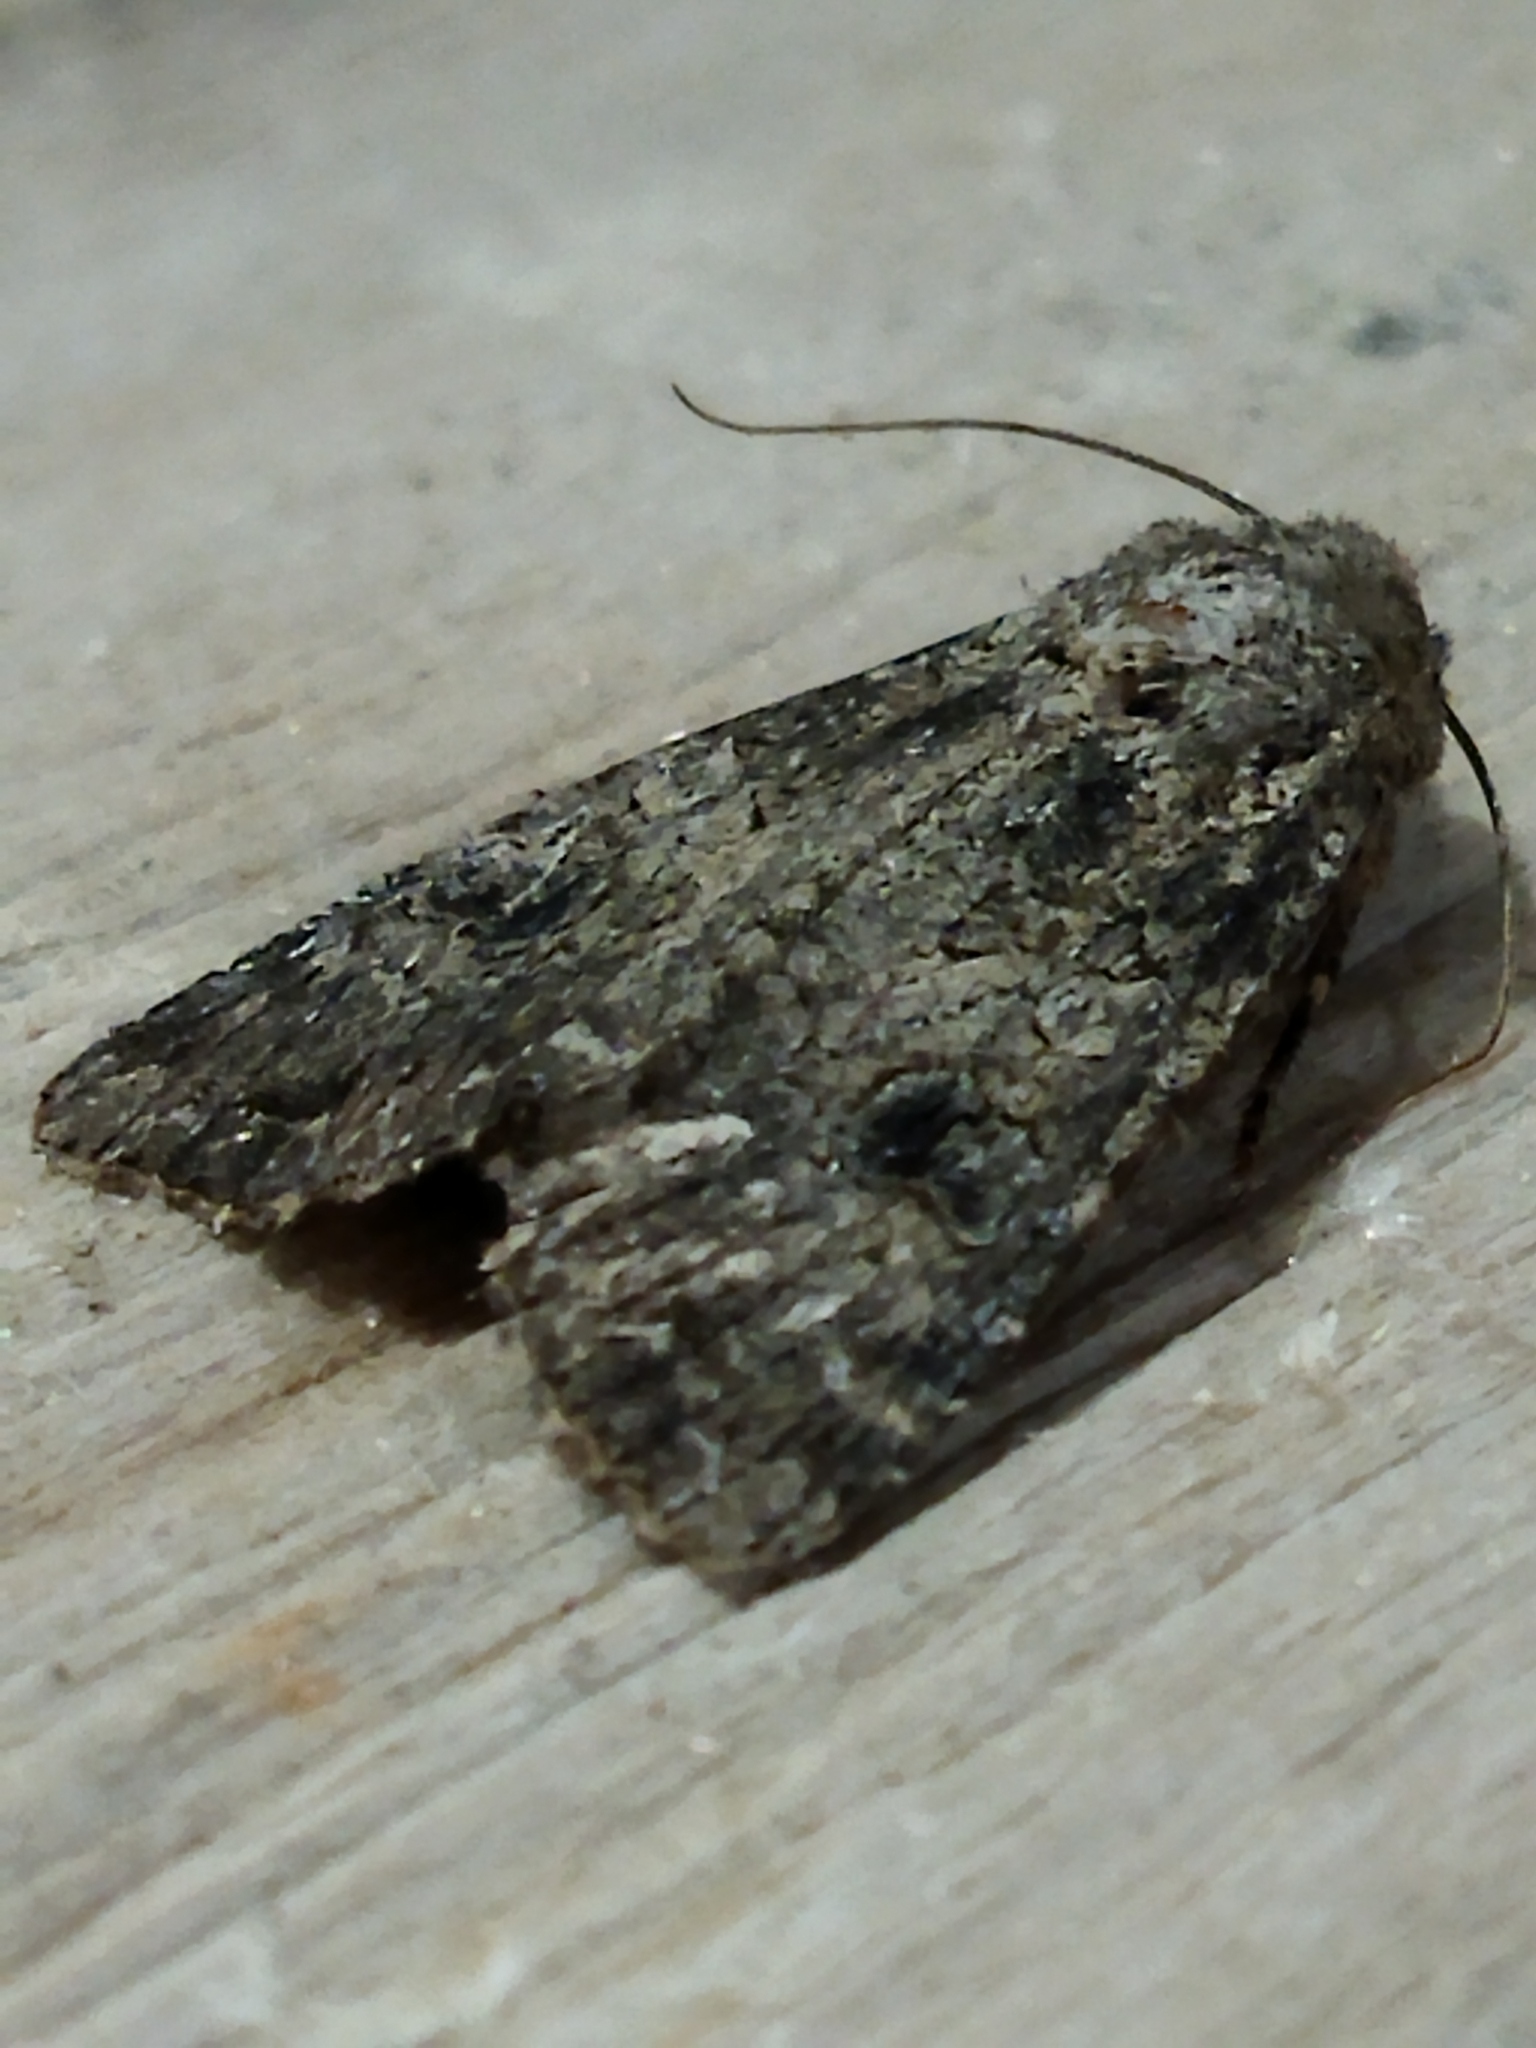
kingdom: Animalia
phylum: Arthropoda
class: Insecta
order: Lepidoptera
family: Noctuidae
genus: Anarta
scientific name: Anarta trifolii
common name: Clover cutworm moth
